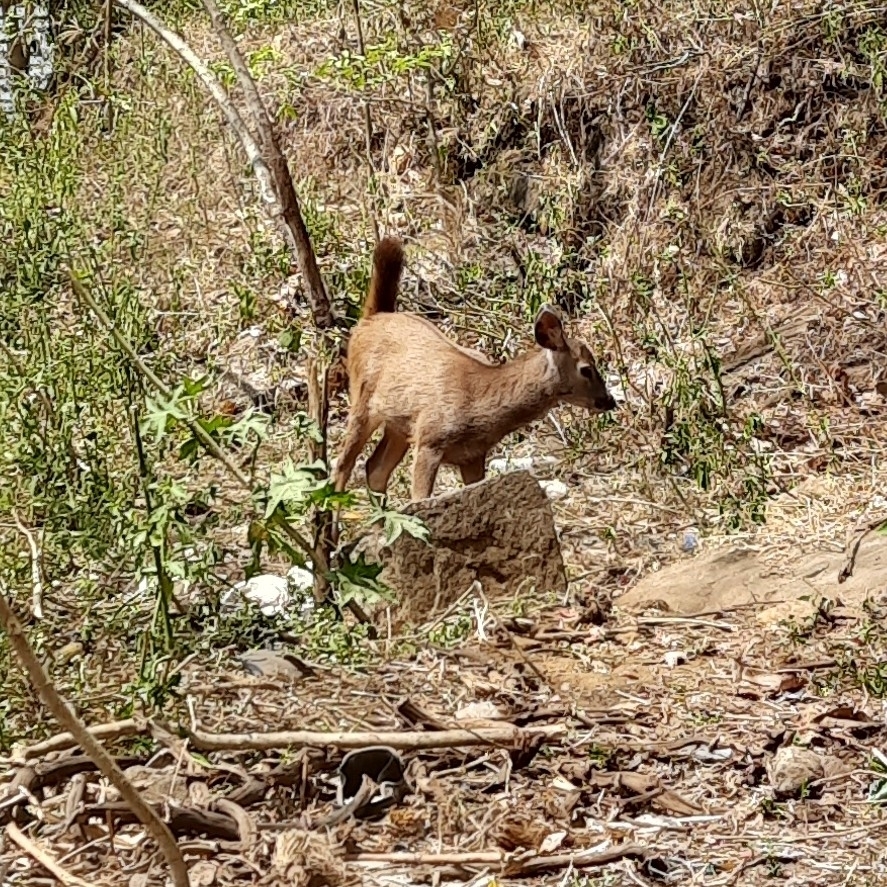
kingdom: Animalia
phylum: Chordata
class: Mammalia
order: Artiodactyla
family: Cervidae
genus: Rusa
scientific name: Rusa unicolor
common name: Sambar
